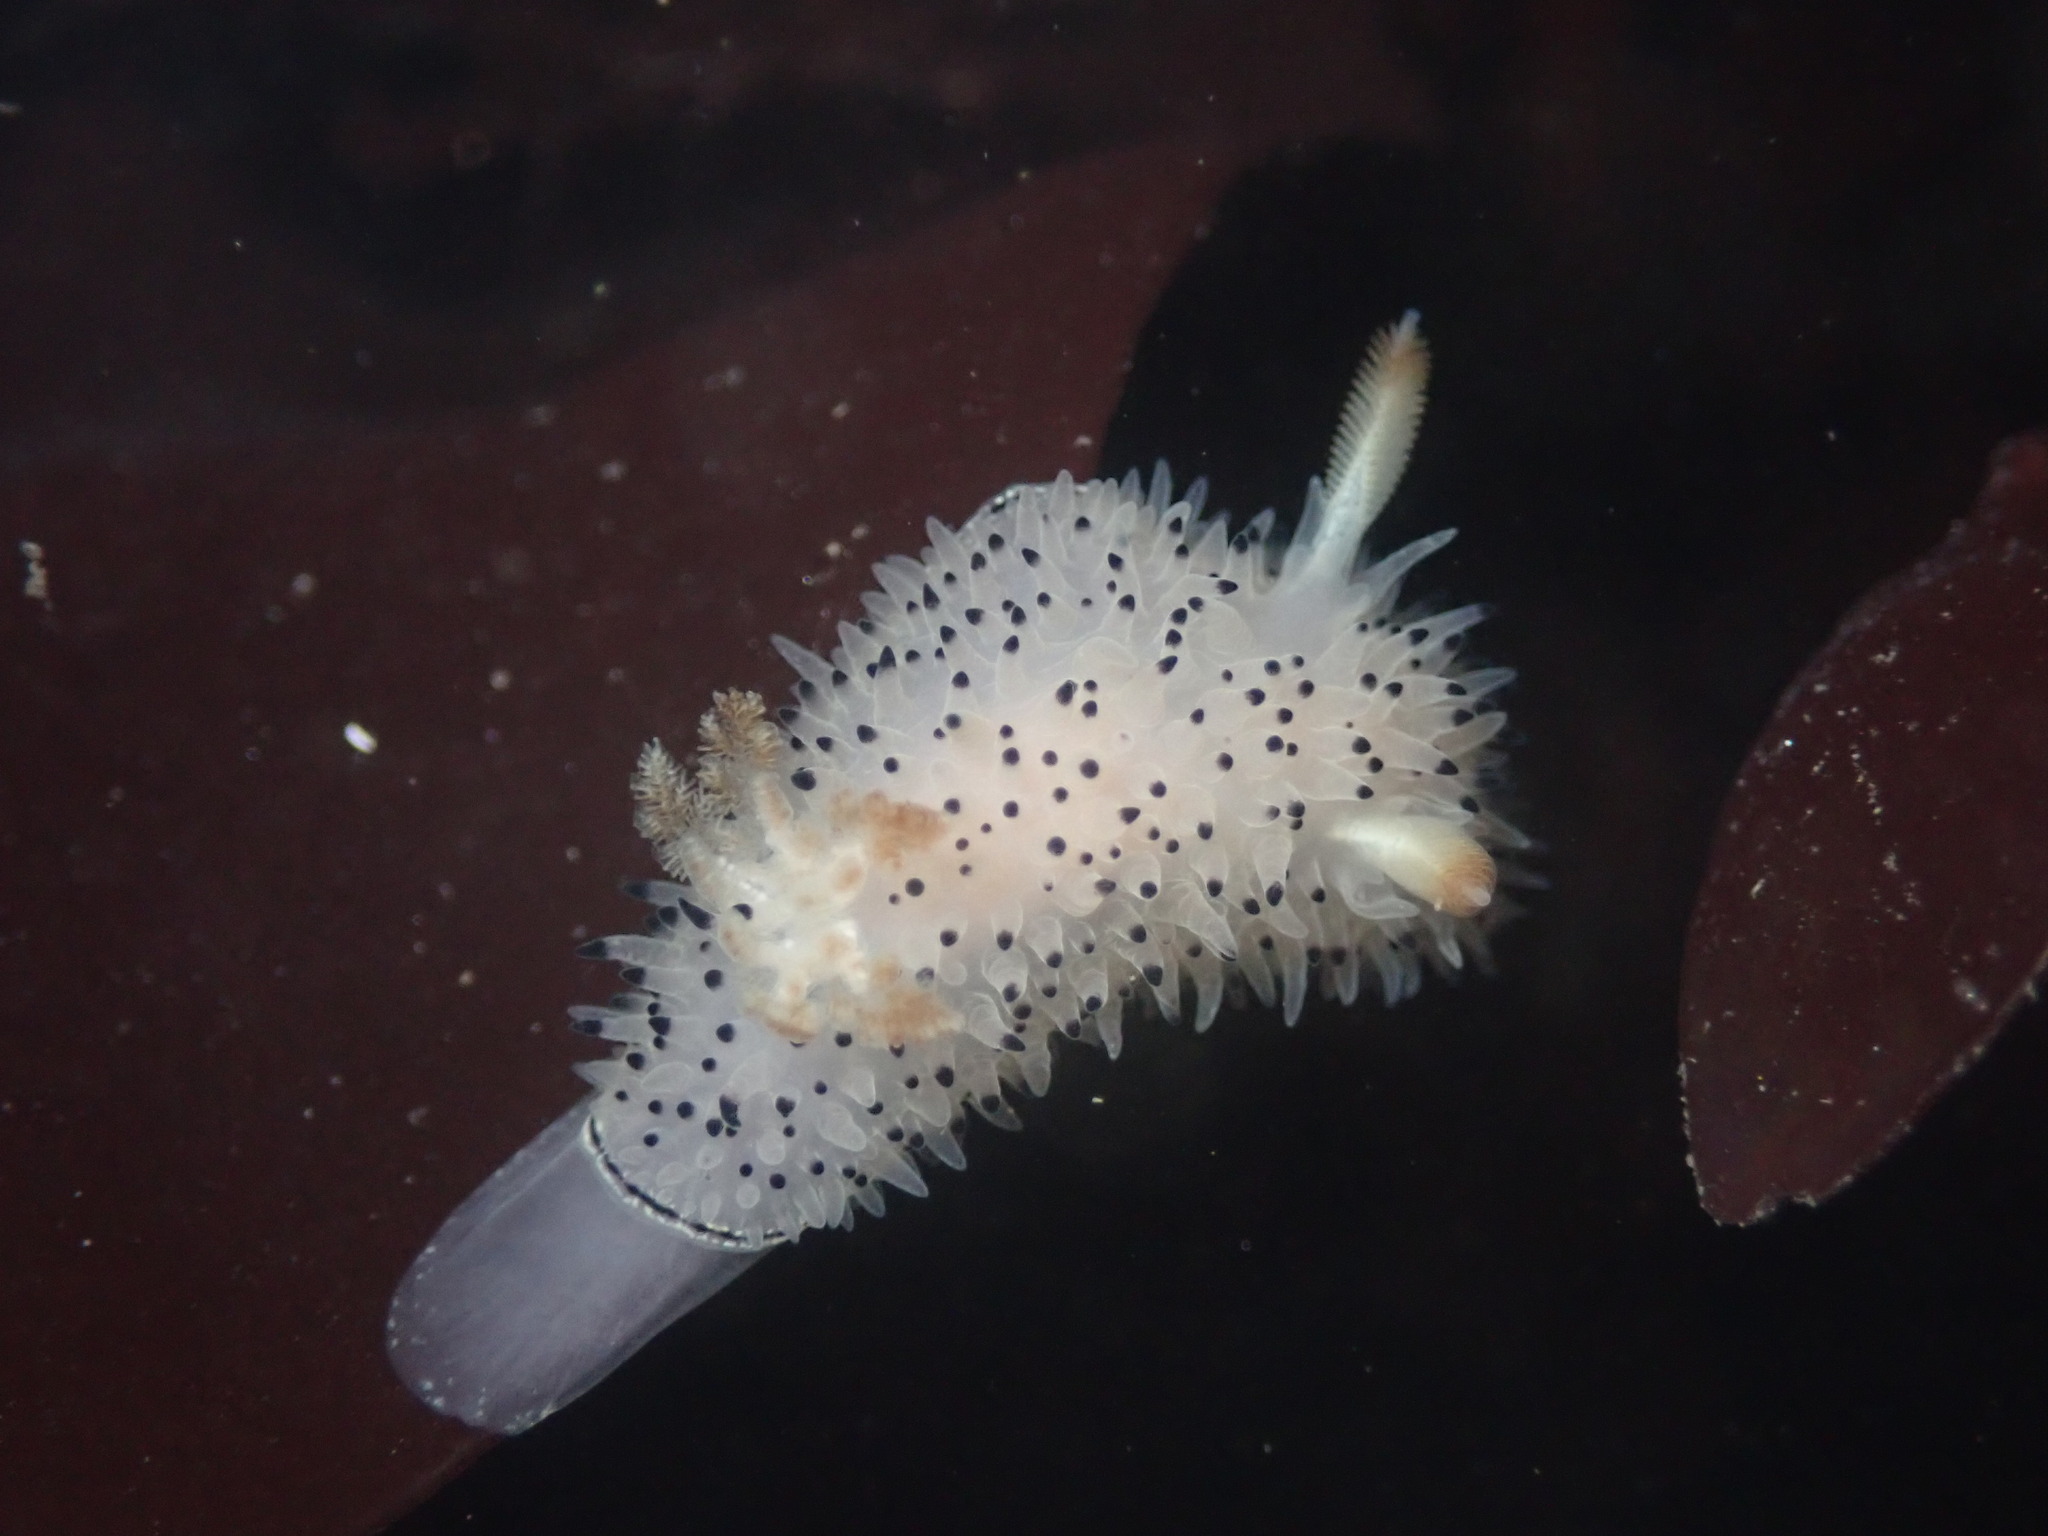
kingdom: Animalia
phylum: Mollusca
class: Gastropoda
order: Nudibranchia
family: Onchidorididae
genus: Acanthodoris
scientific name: Acanthodoris rhodoceras
